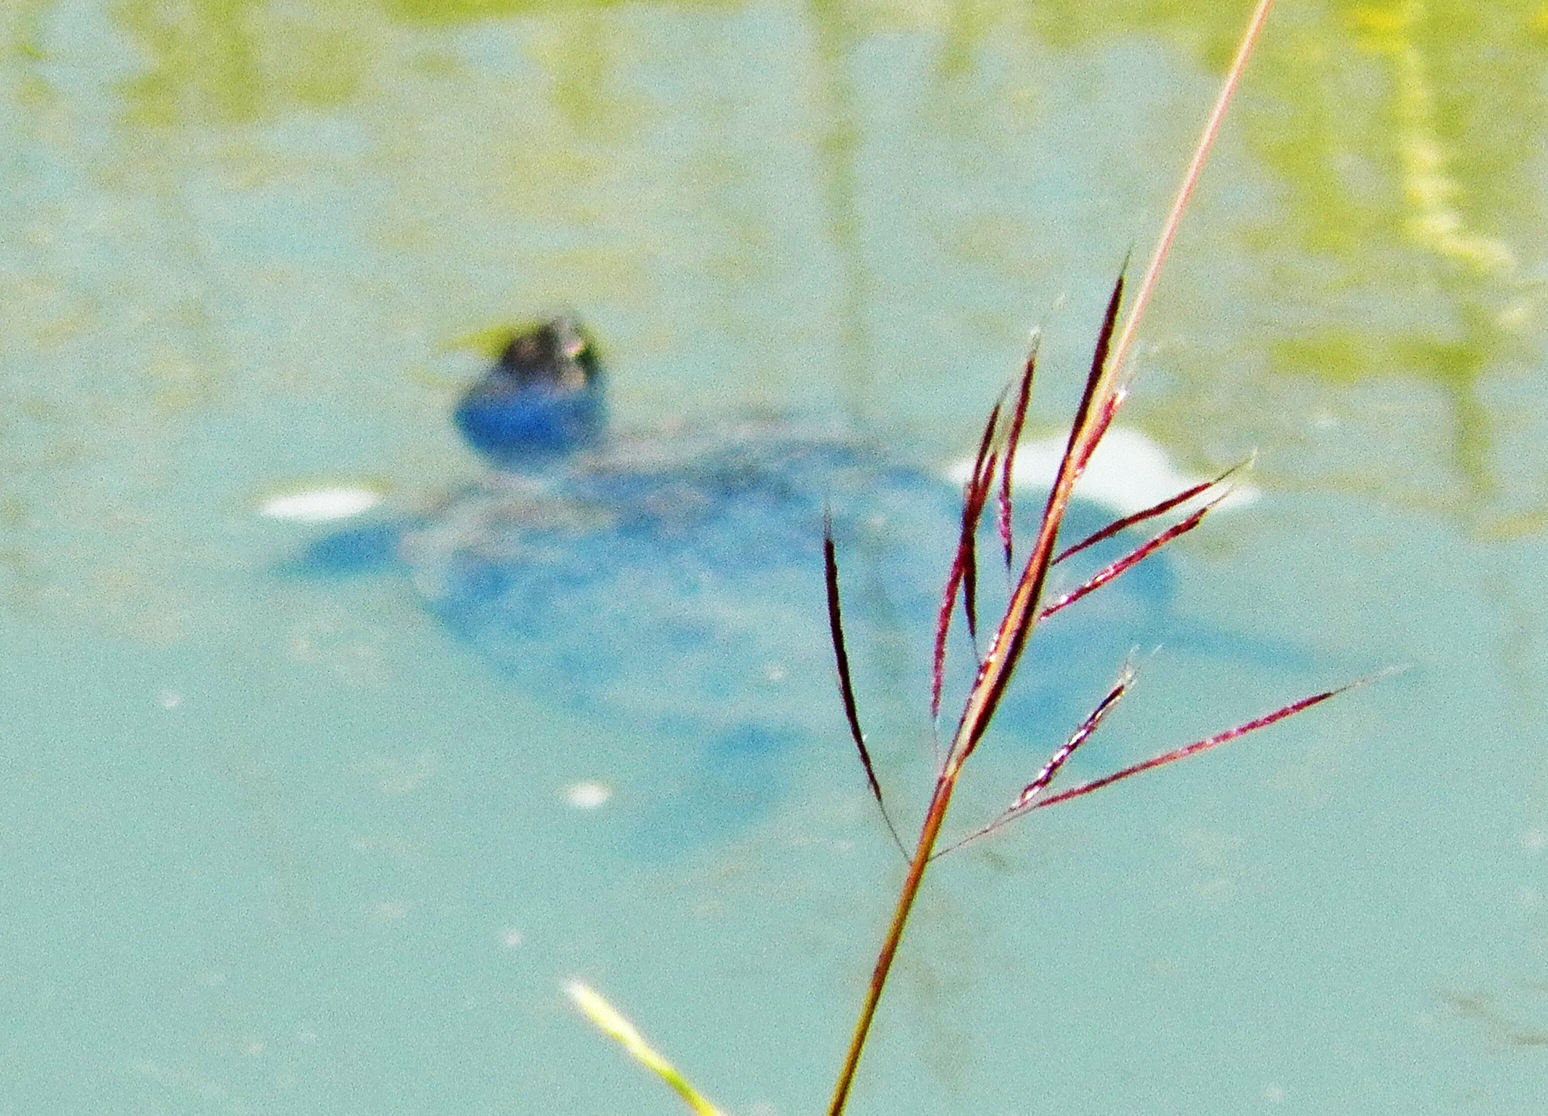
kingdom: Animalia
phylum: Chordata
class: Testudines
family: Emydidae
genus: Trachemys
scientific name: Trachemys scripta
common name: Slider
